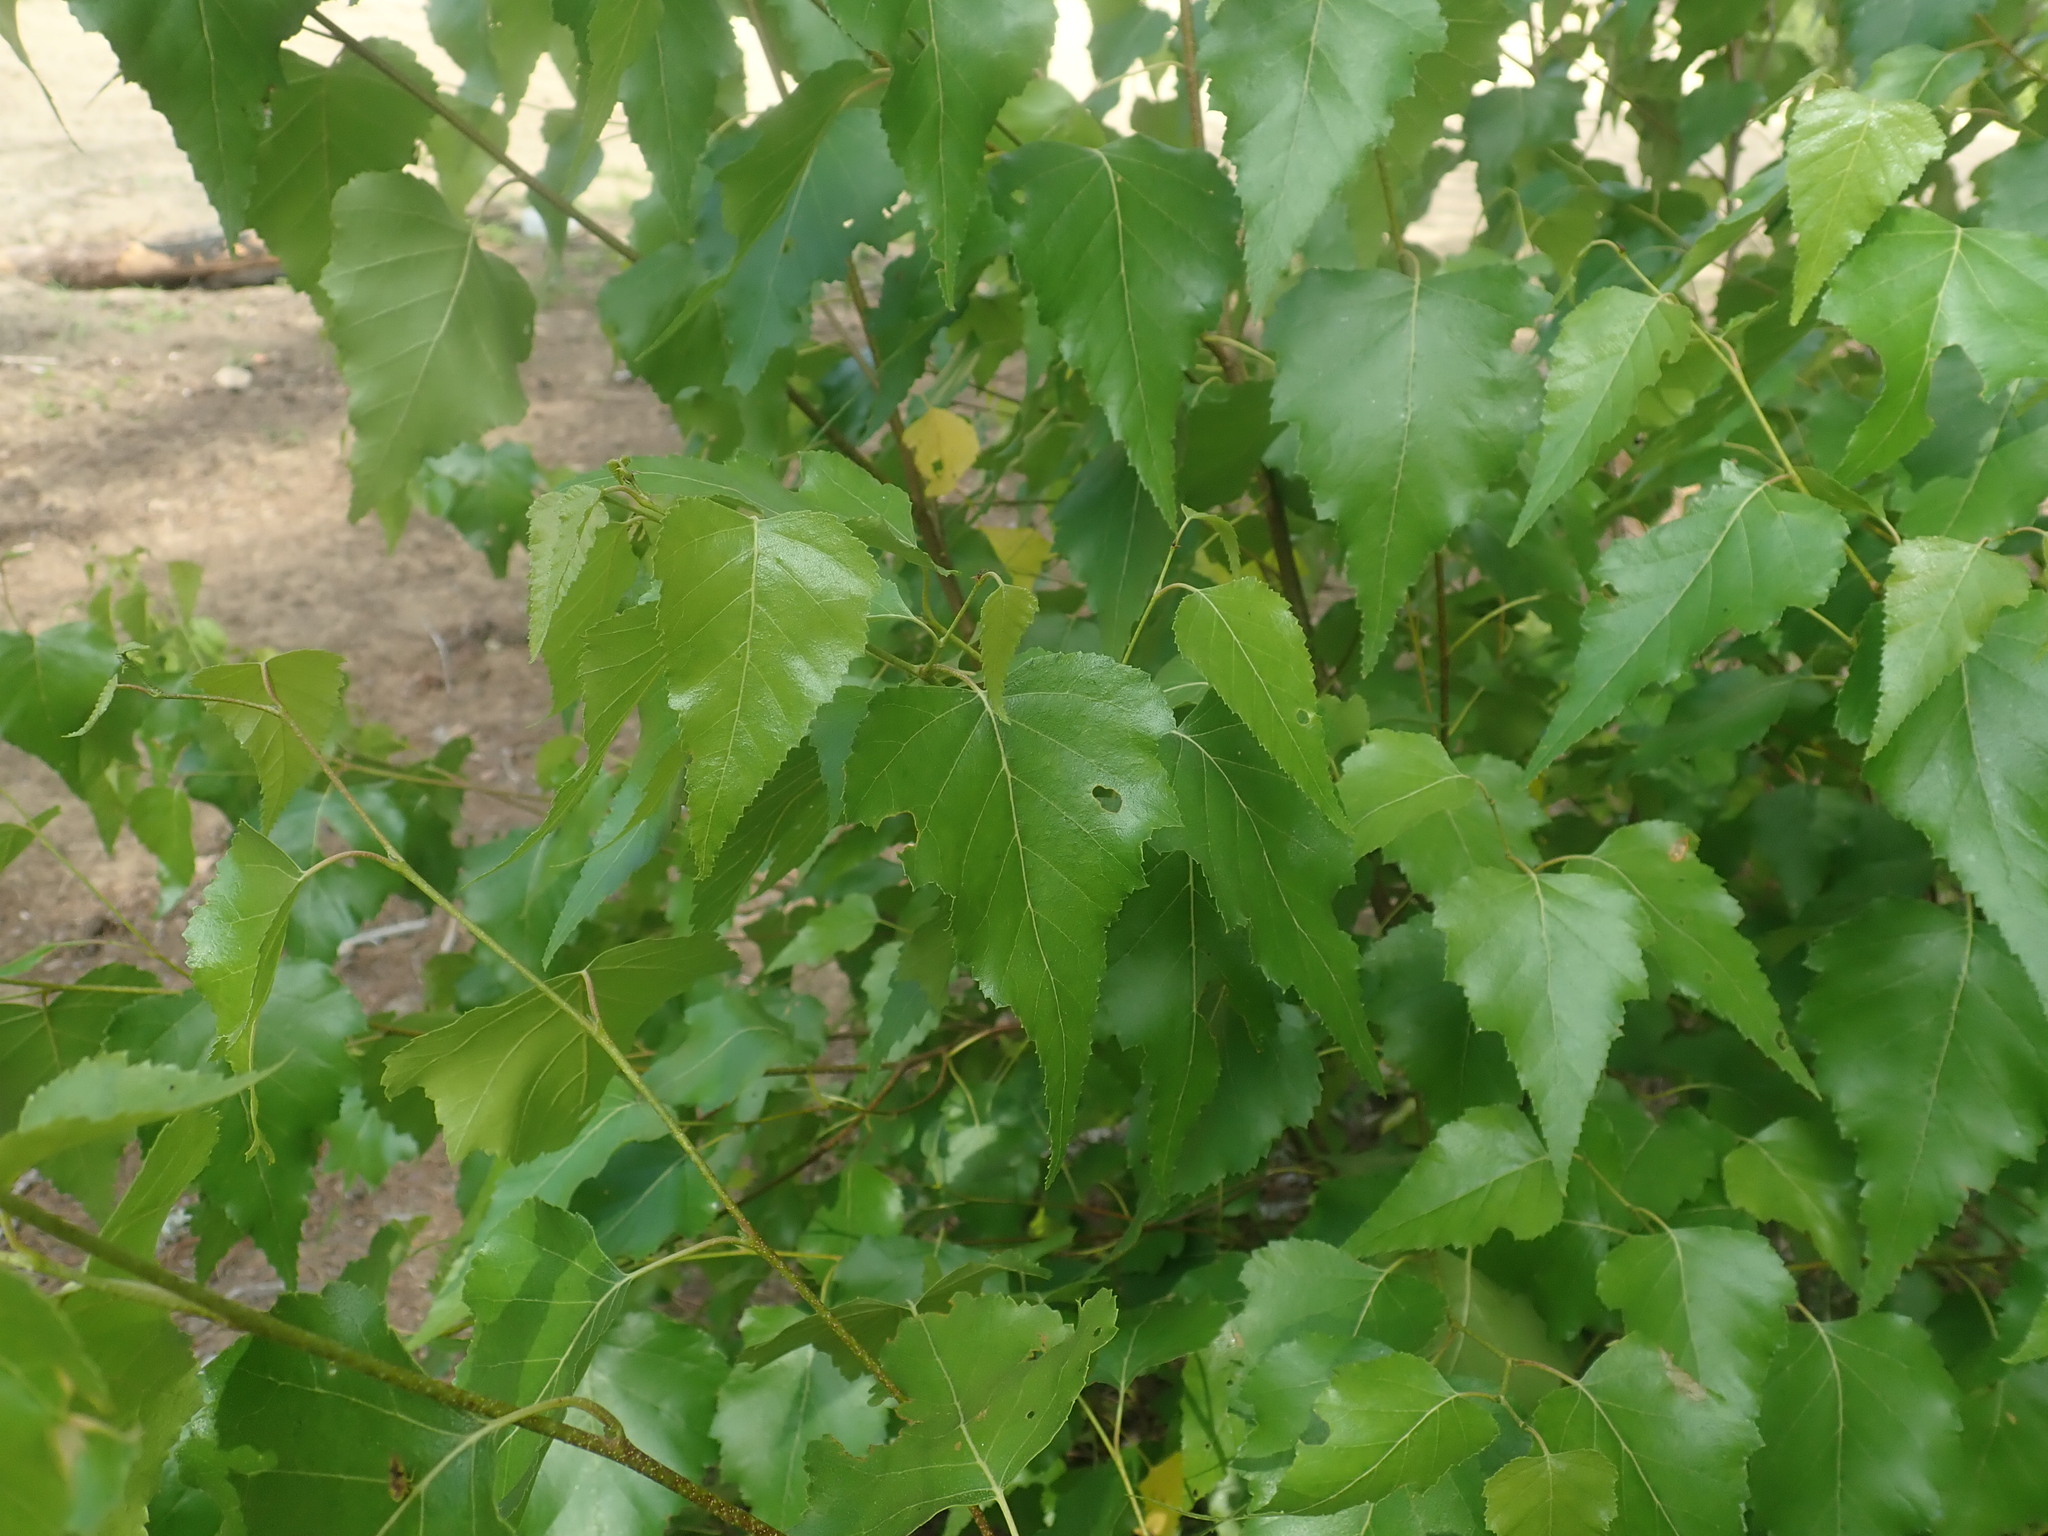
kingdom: Plantae
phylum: Tracheophyta
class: Magnoliopsida
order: Fagales
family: Betulaceae
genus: Betula
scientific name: Betula populifolia
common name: Fire birch
